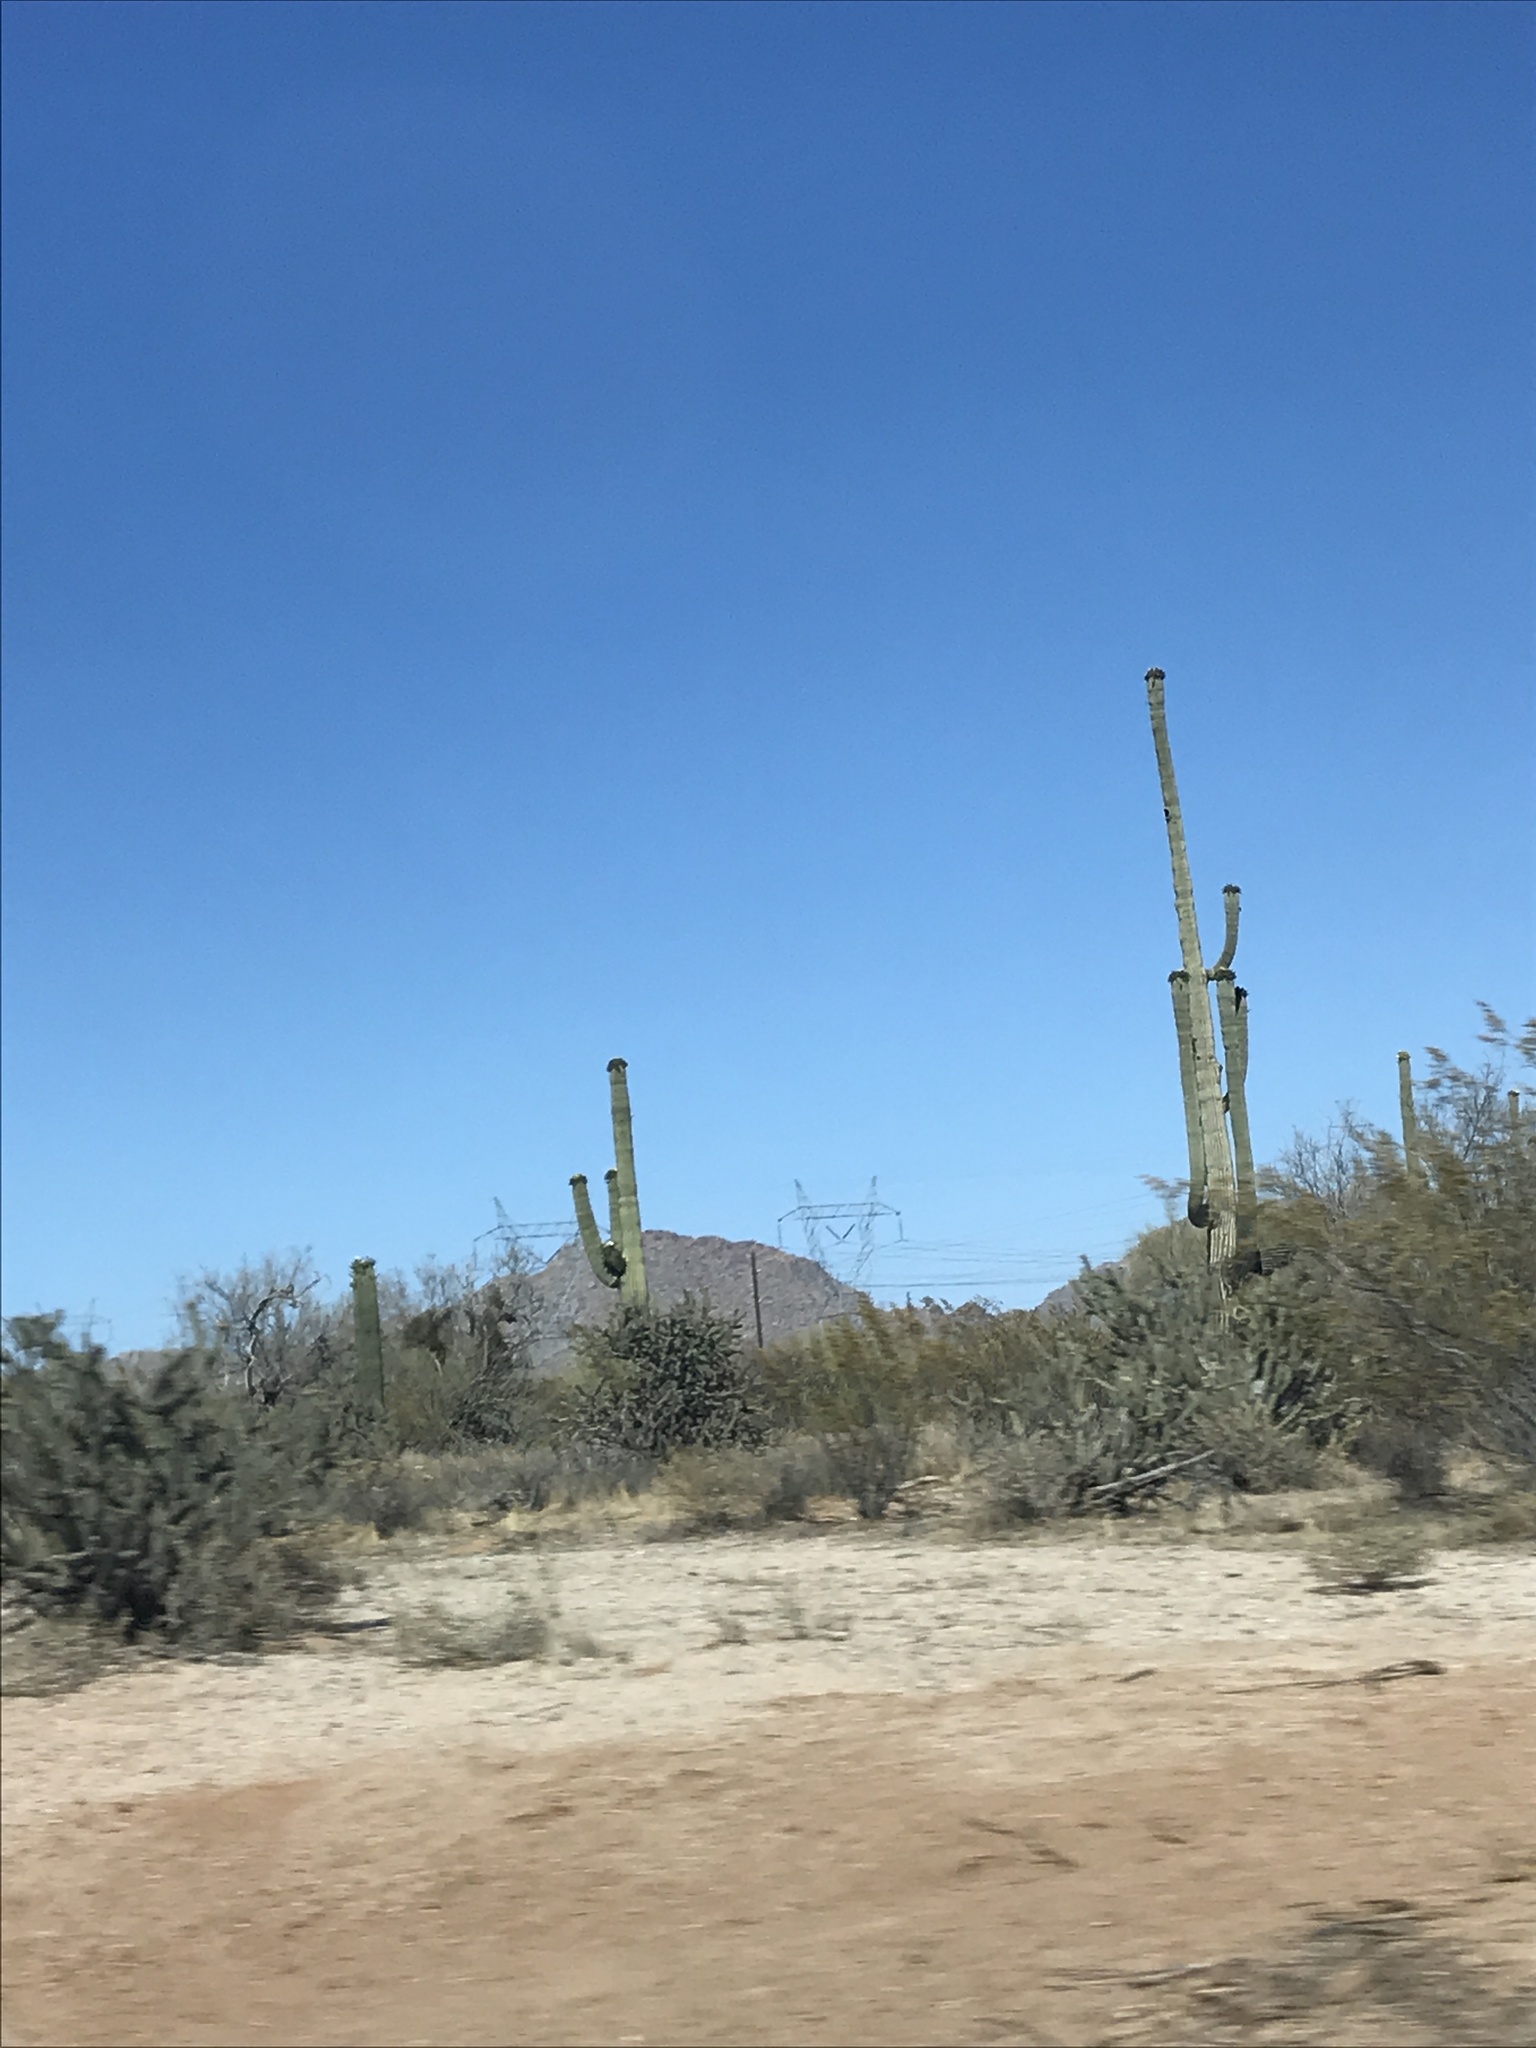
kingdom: Plantae
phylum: Tracheophyta
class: Magnoliopsida
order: Caryophyllales
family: Cactaceae
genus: Carnegiea
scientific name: Carnegiea gigantea
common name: Saguaro
